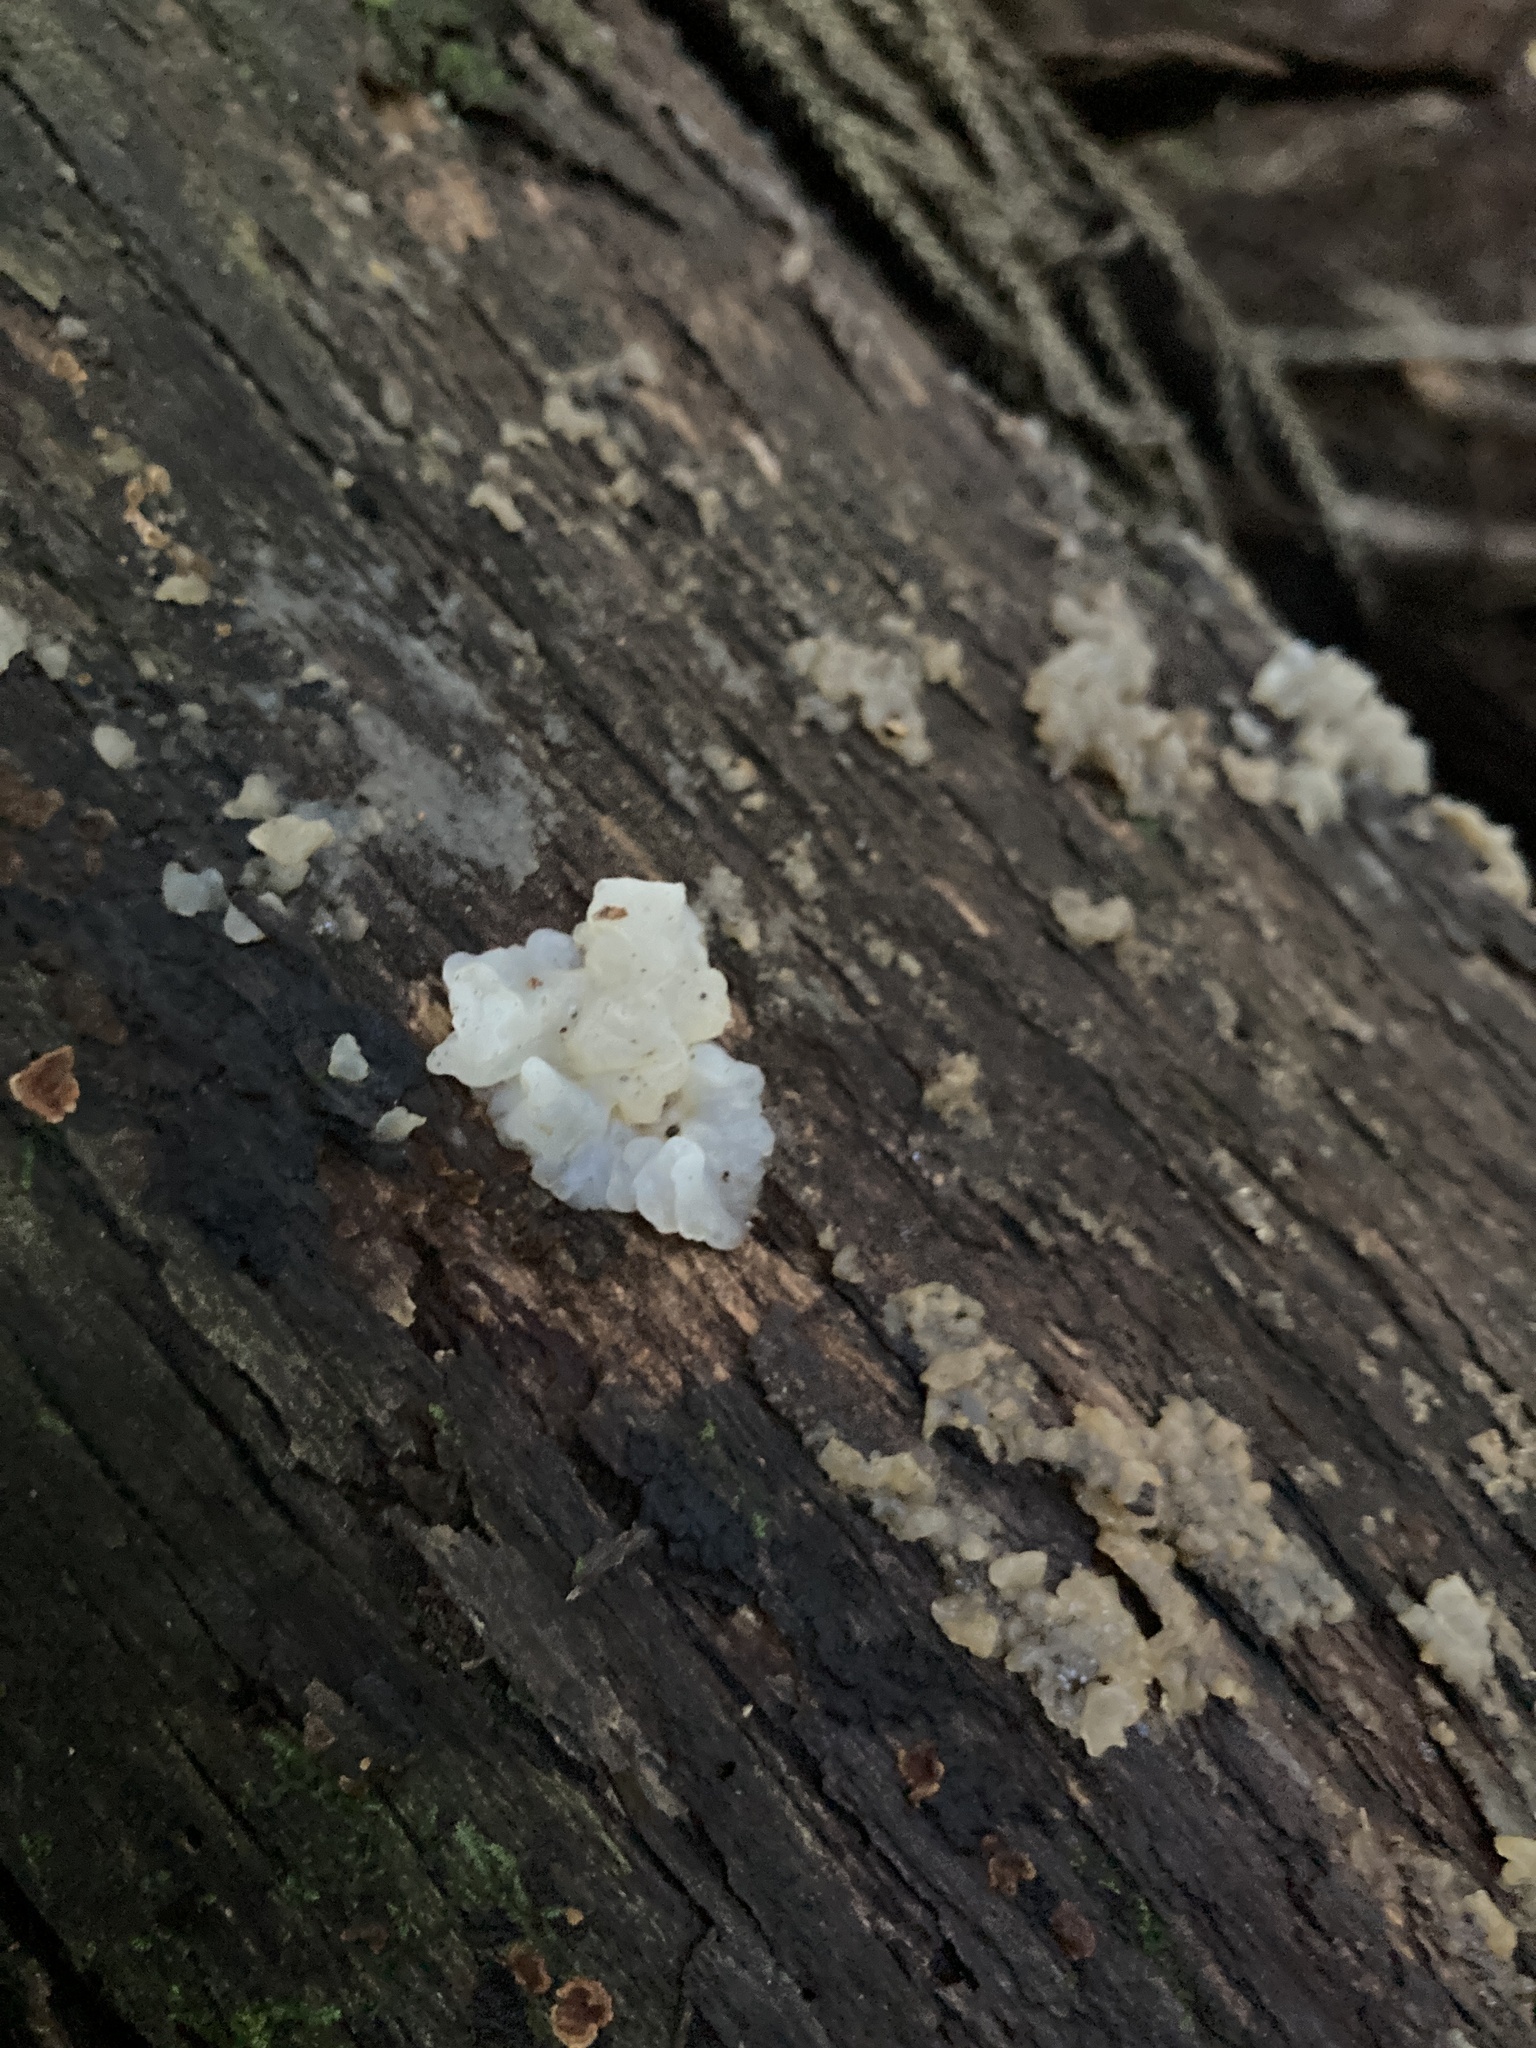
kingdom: Fungi
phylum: Basidiomycota
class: Tremellomycetes
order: Tremellales
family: Tremellaceae
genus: Tremella
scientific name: Tremella fuciformis
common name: Snow fungus
